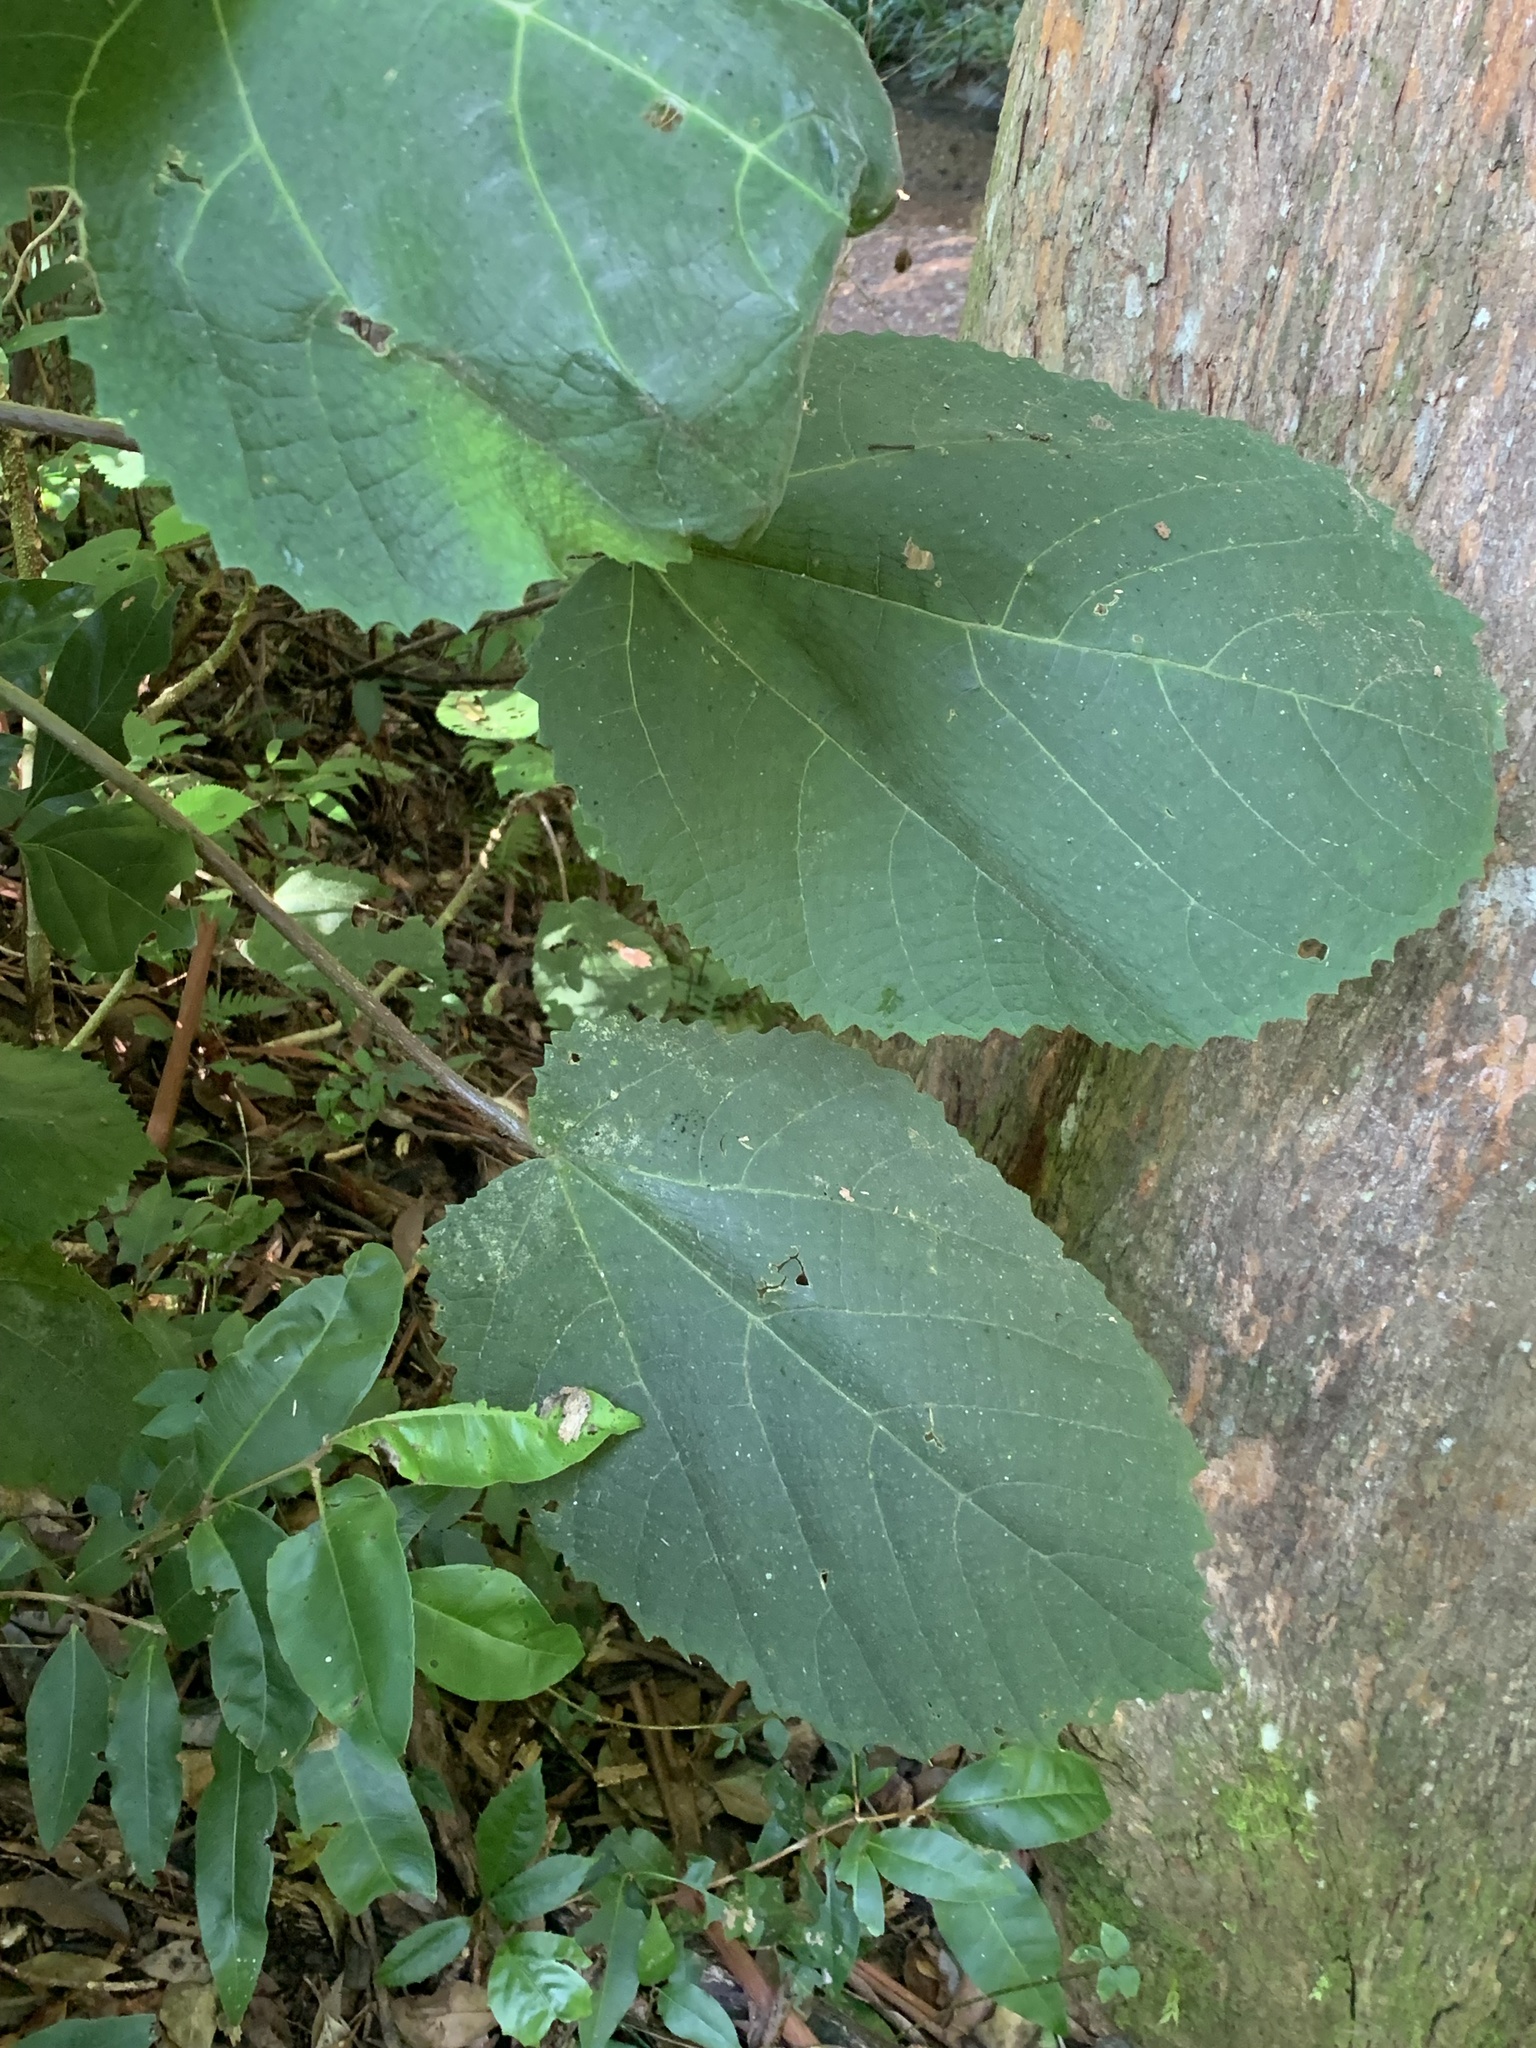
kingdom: Plantae
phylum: Tracheophyta
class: Magnoliopsida
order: Rosales
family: Urticaceae
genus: Dendrocnide
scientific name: Dendrocnide excelsa
